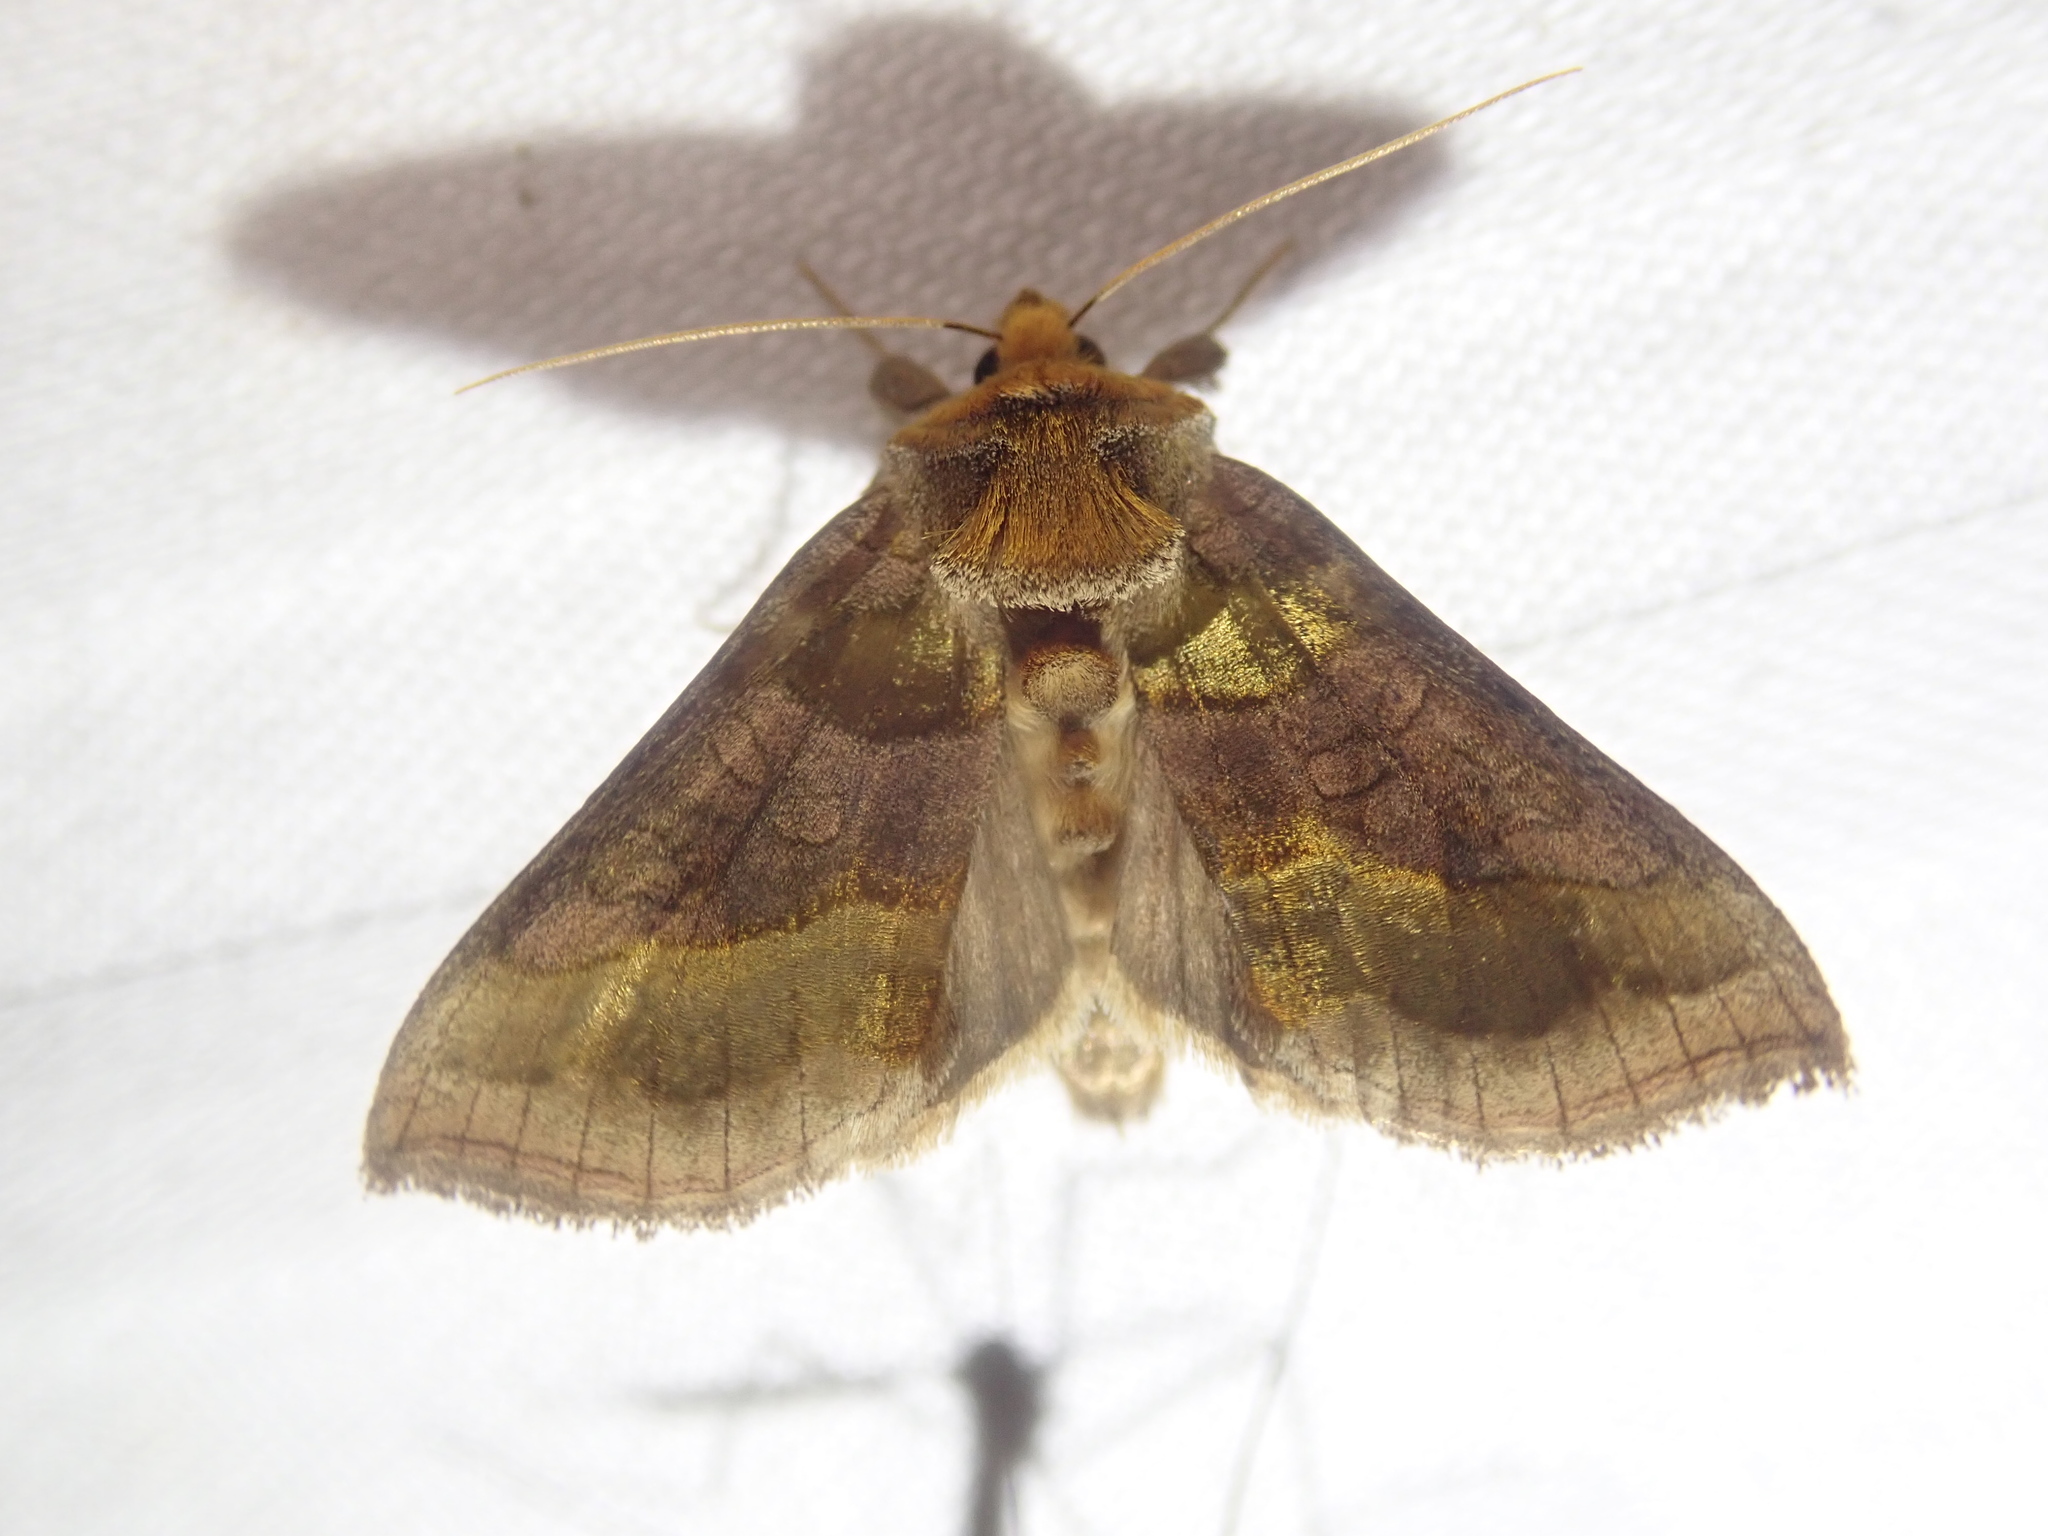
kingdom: Animalia
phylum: Arthropoda
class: Insecta
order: Lepidoptera
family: Noctuidae
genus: Diachrysia
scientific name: Diachrysia chrysitis
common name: Burnished brass
